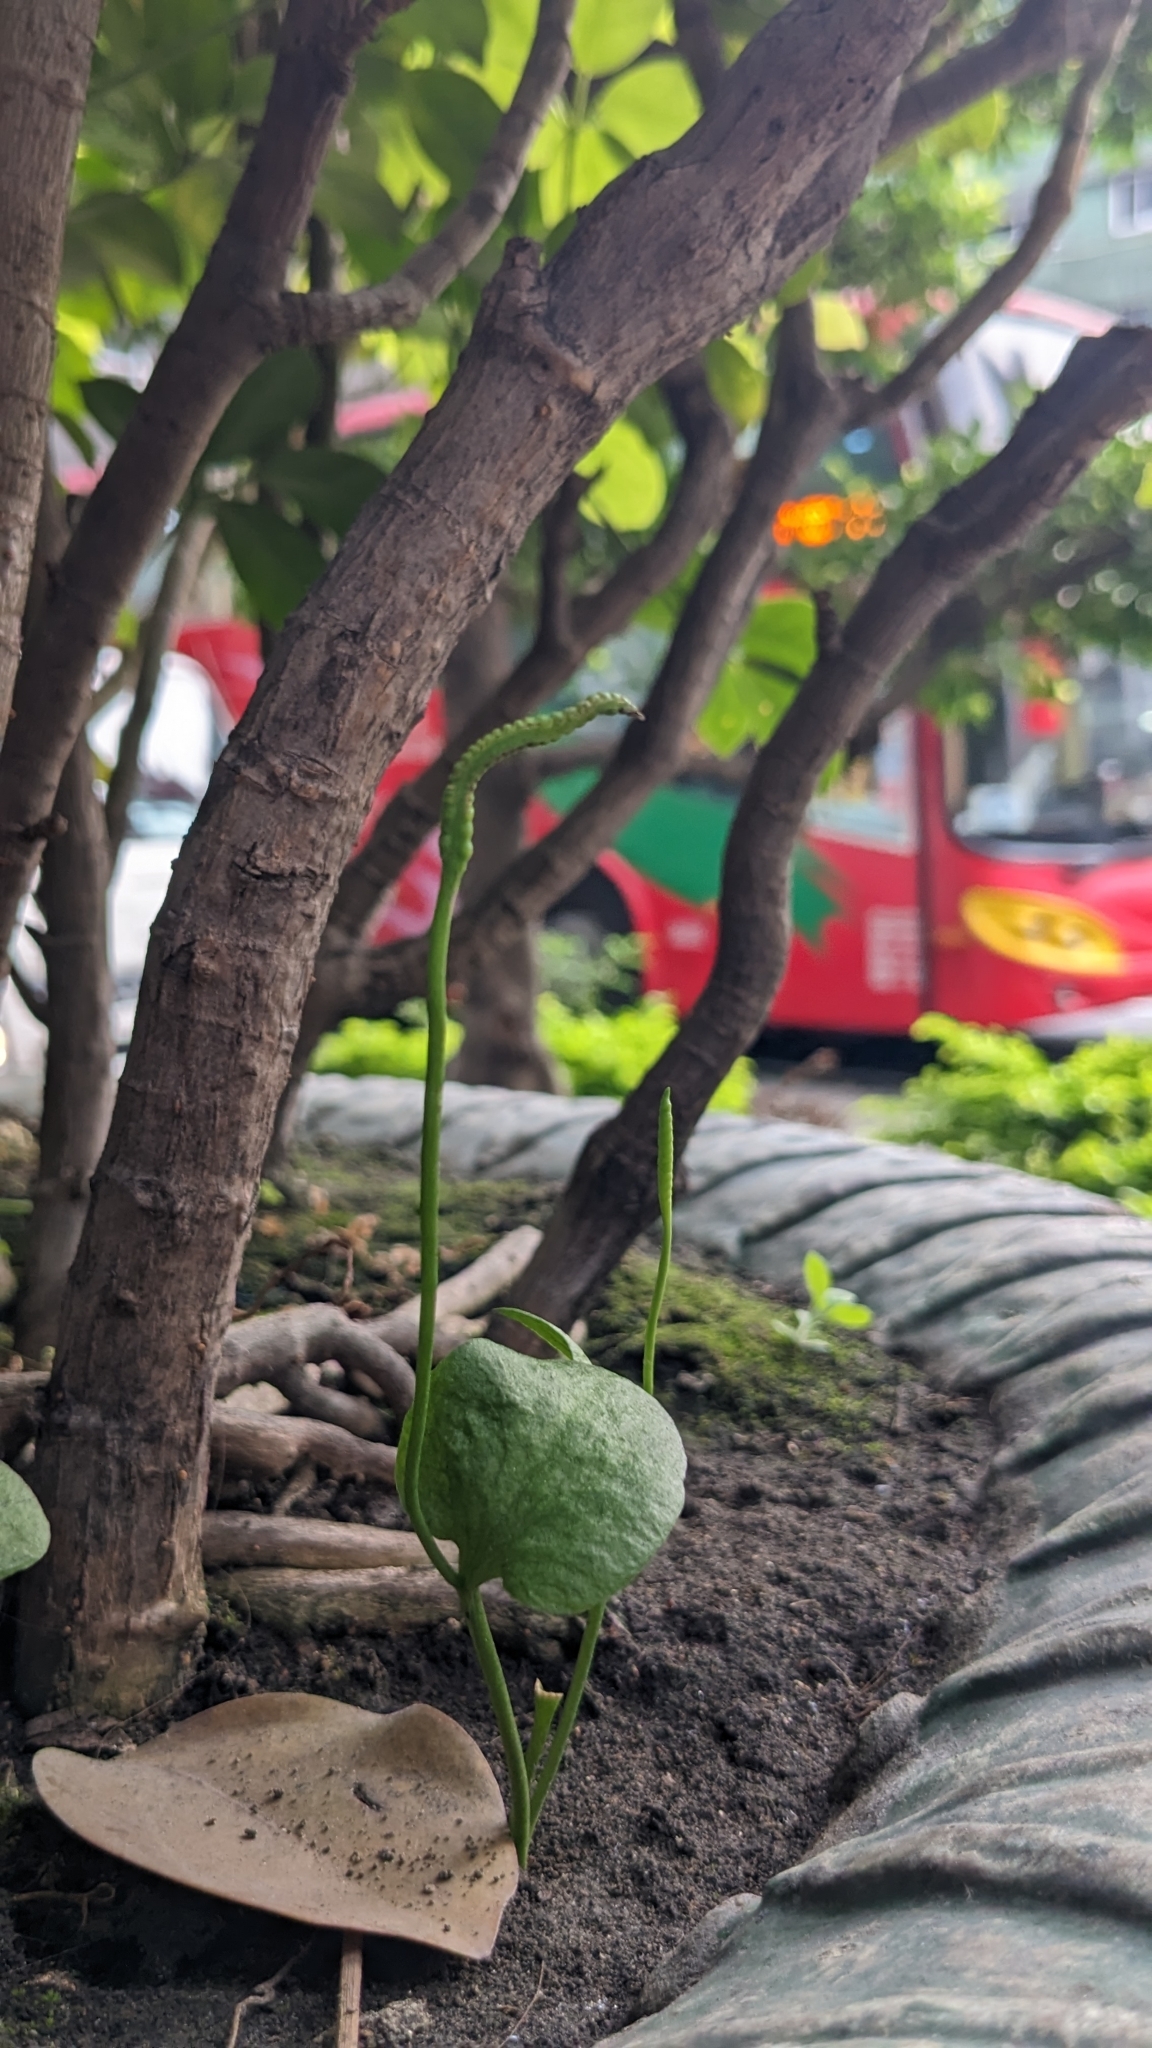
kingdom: Plantae
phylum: Tracheophyta
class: Polypodiopsida
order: Ophioglossales
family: Ophioglossaceae
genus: Ophioglossum
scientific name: Ophioglossum petiolatum
